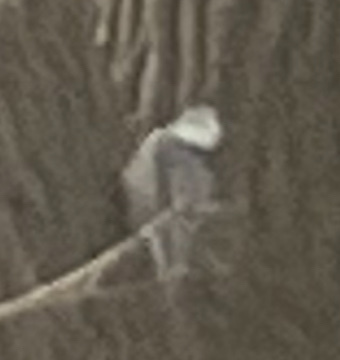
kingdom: Animalia
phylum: Chordata
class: Aves
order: Passeriformes
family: Sittidae
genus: Sitta
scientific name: Sitta carolinensis
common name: White-breasted nuthatch
